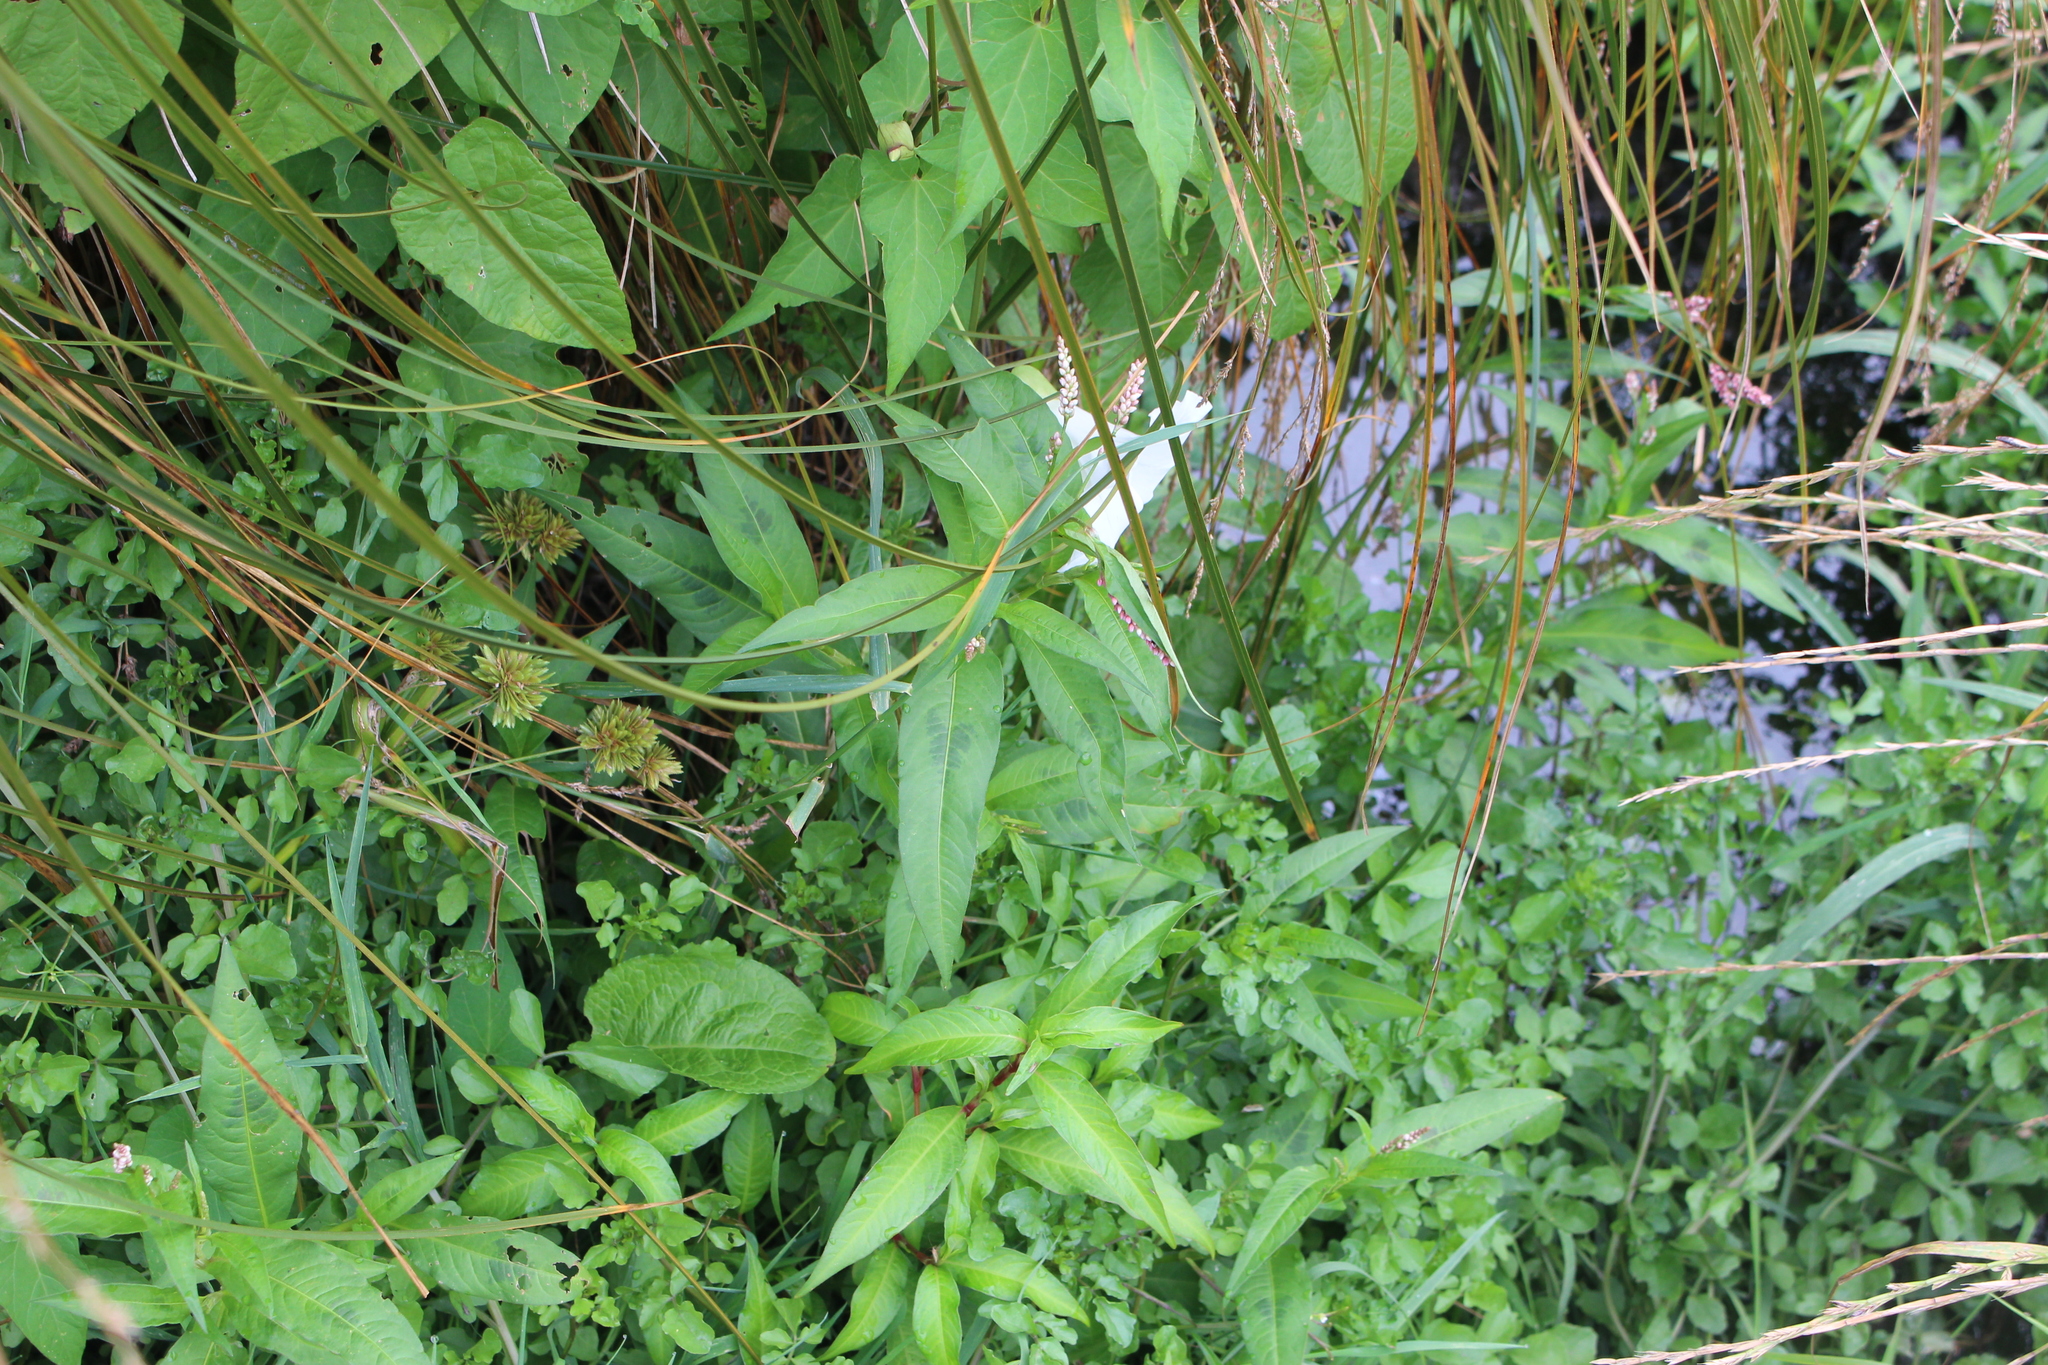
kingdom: Plantae
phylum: Tracheophyta
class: Magnoliopsida
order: Caryophyllales
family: Polygonaceae
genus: Persicaria
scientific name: Persicaria maculosa
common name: Redshank
